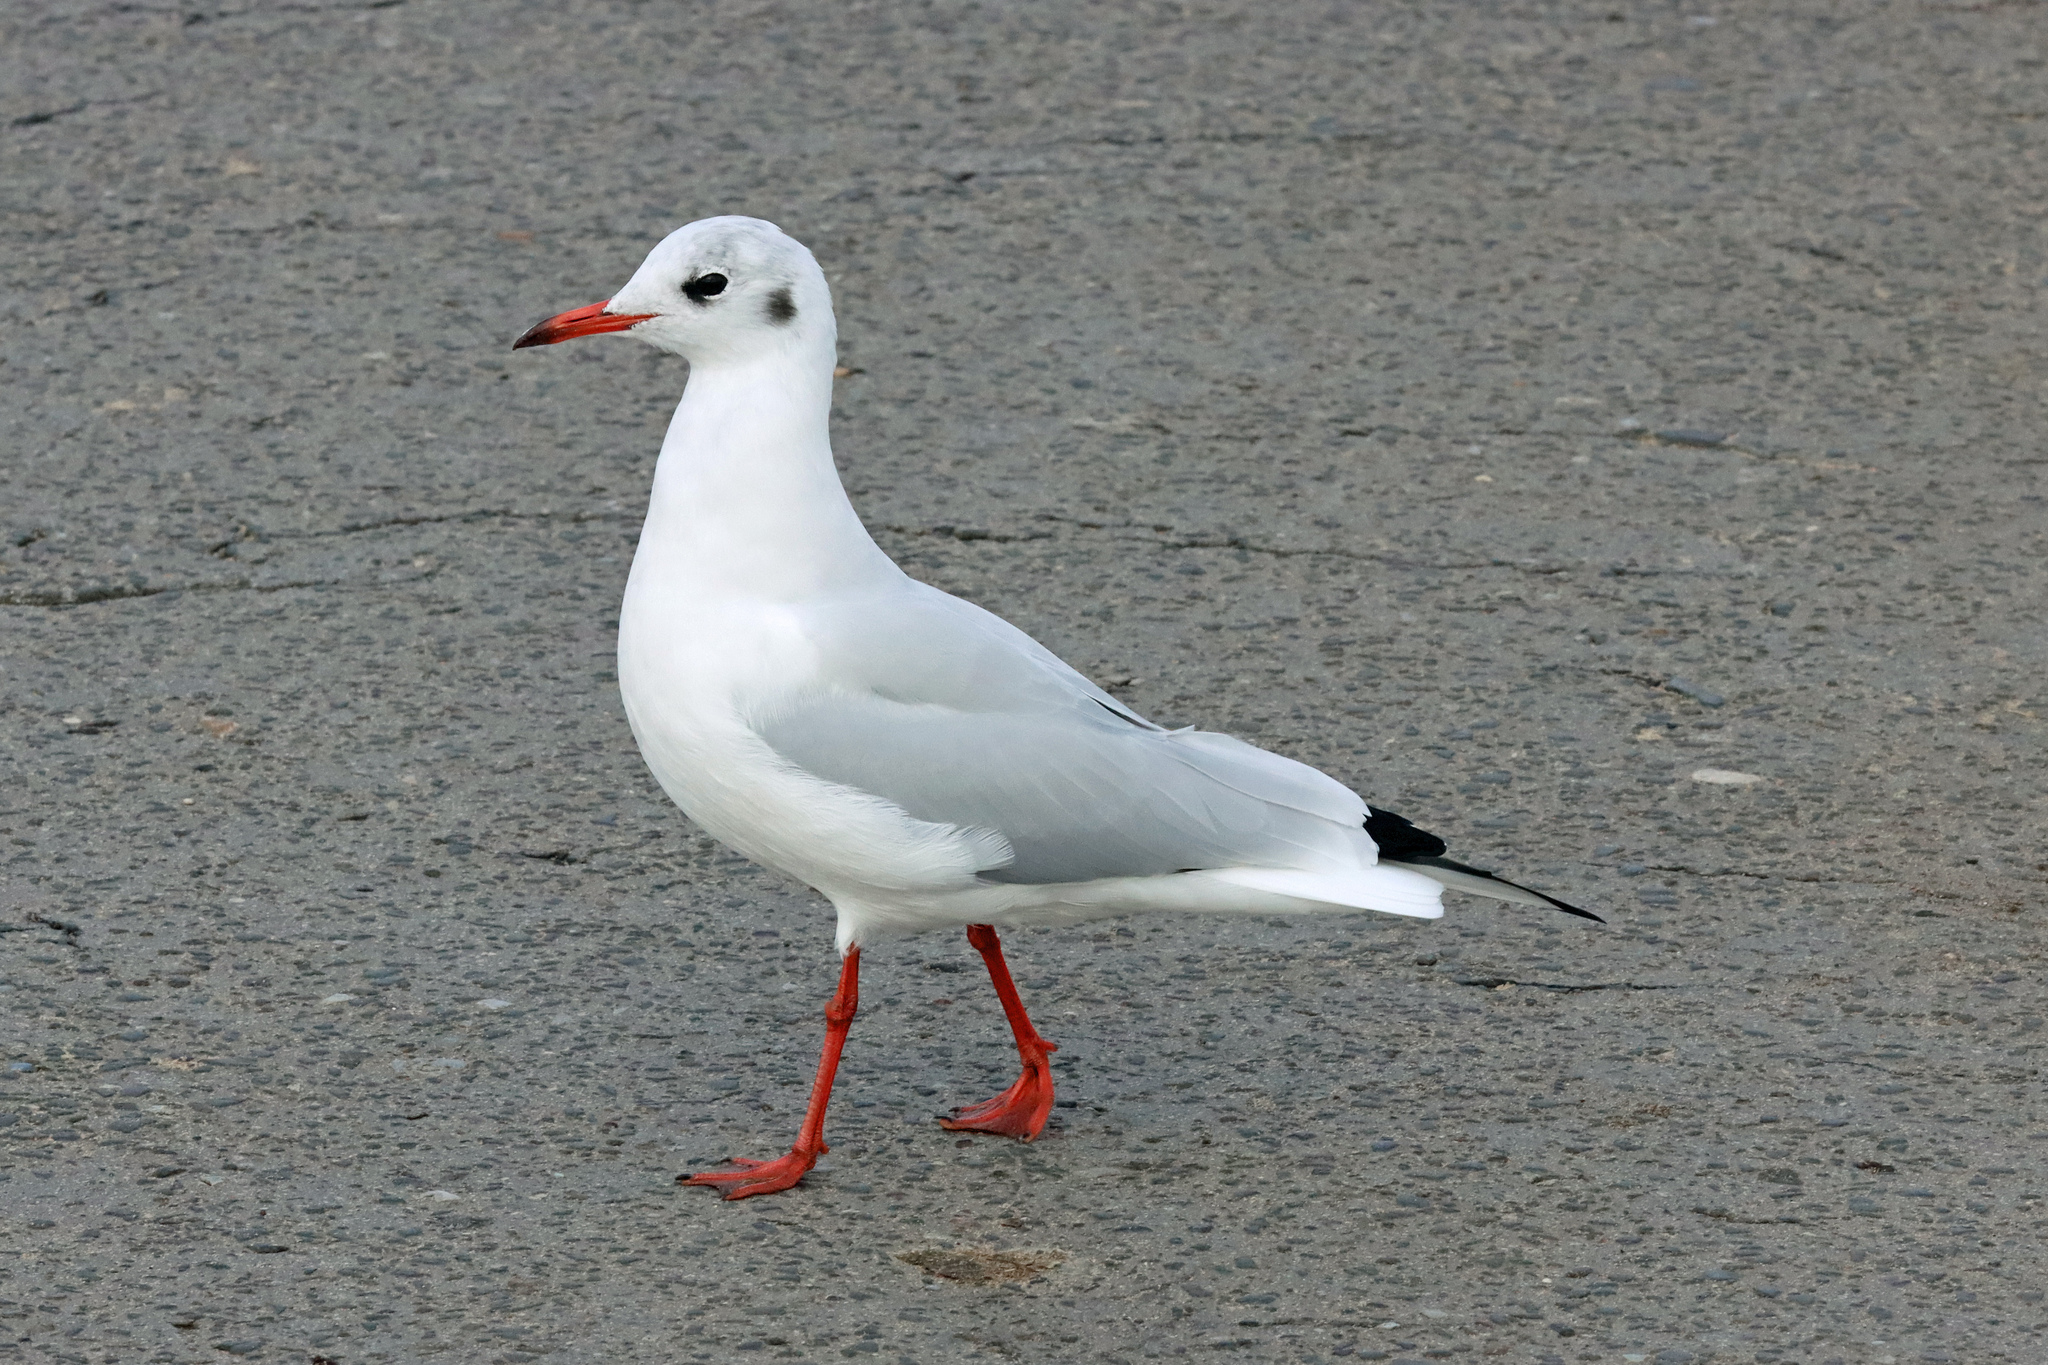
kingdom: Animalia
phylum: Chordata
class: Aves
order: Charadriiformes
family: Laridae
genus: Chroicocephalus
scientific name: Chroicocephalus ridibundus
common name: Black-headed gull
